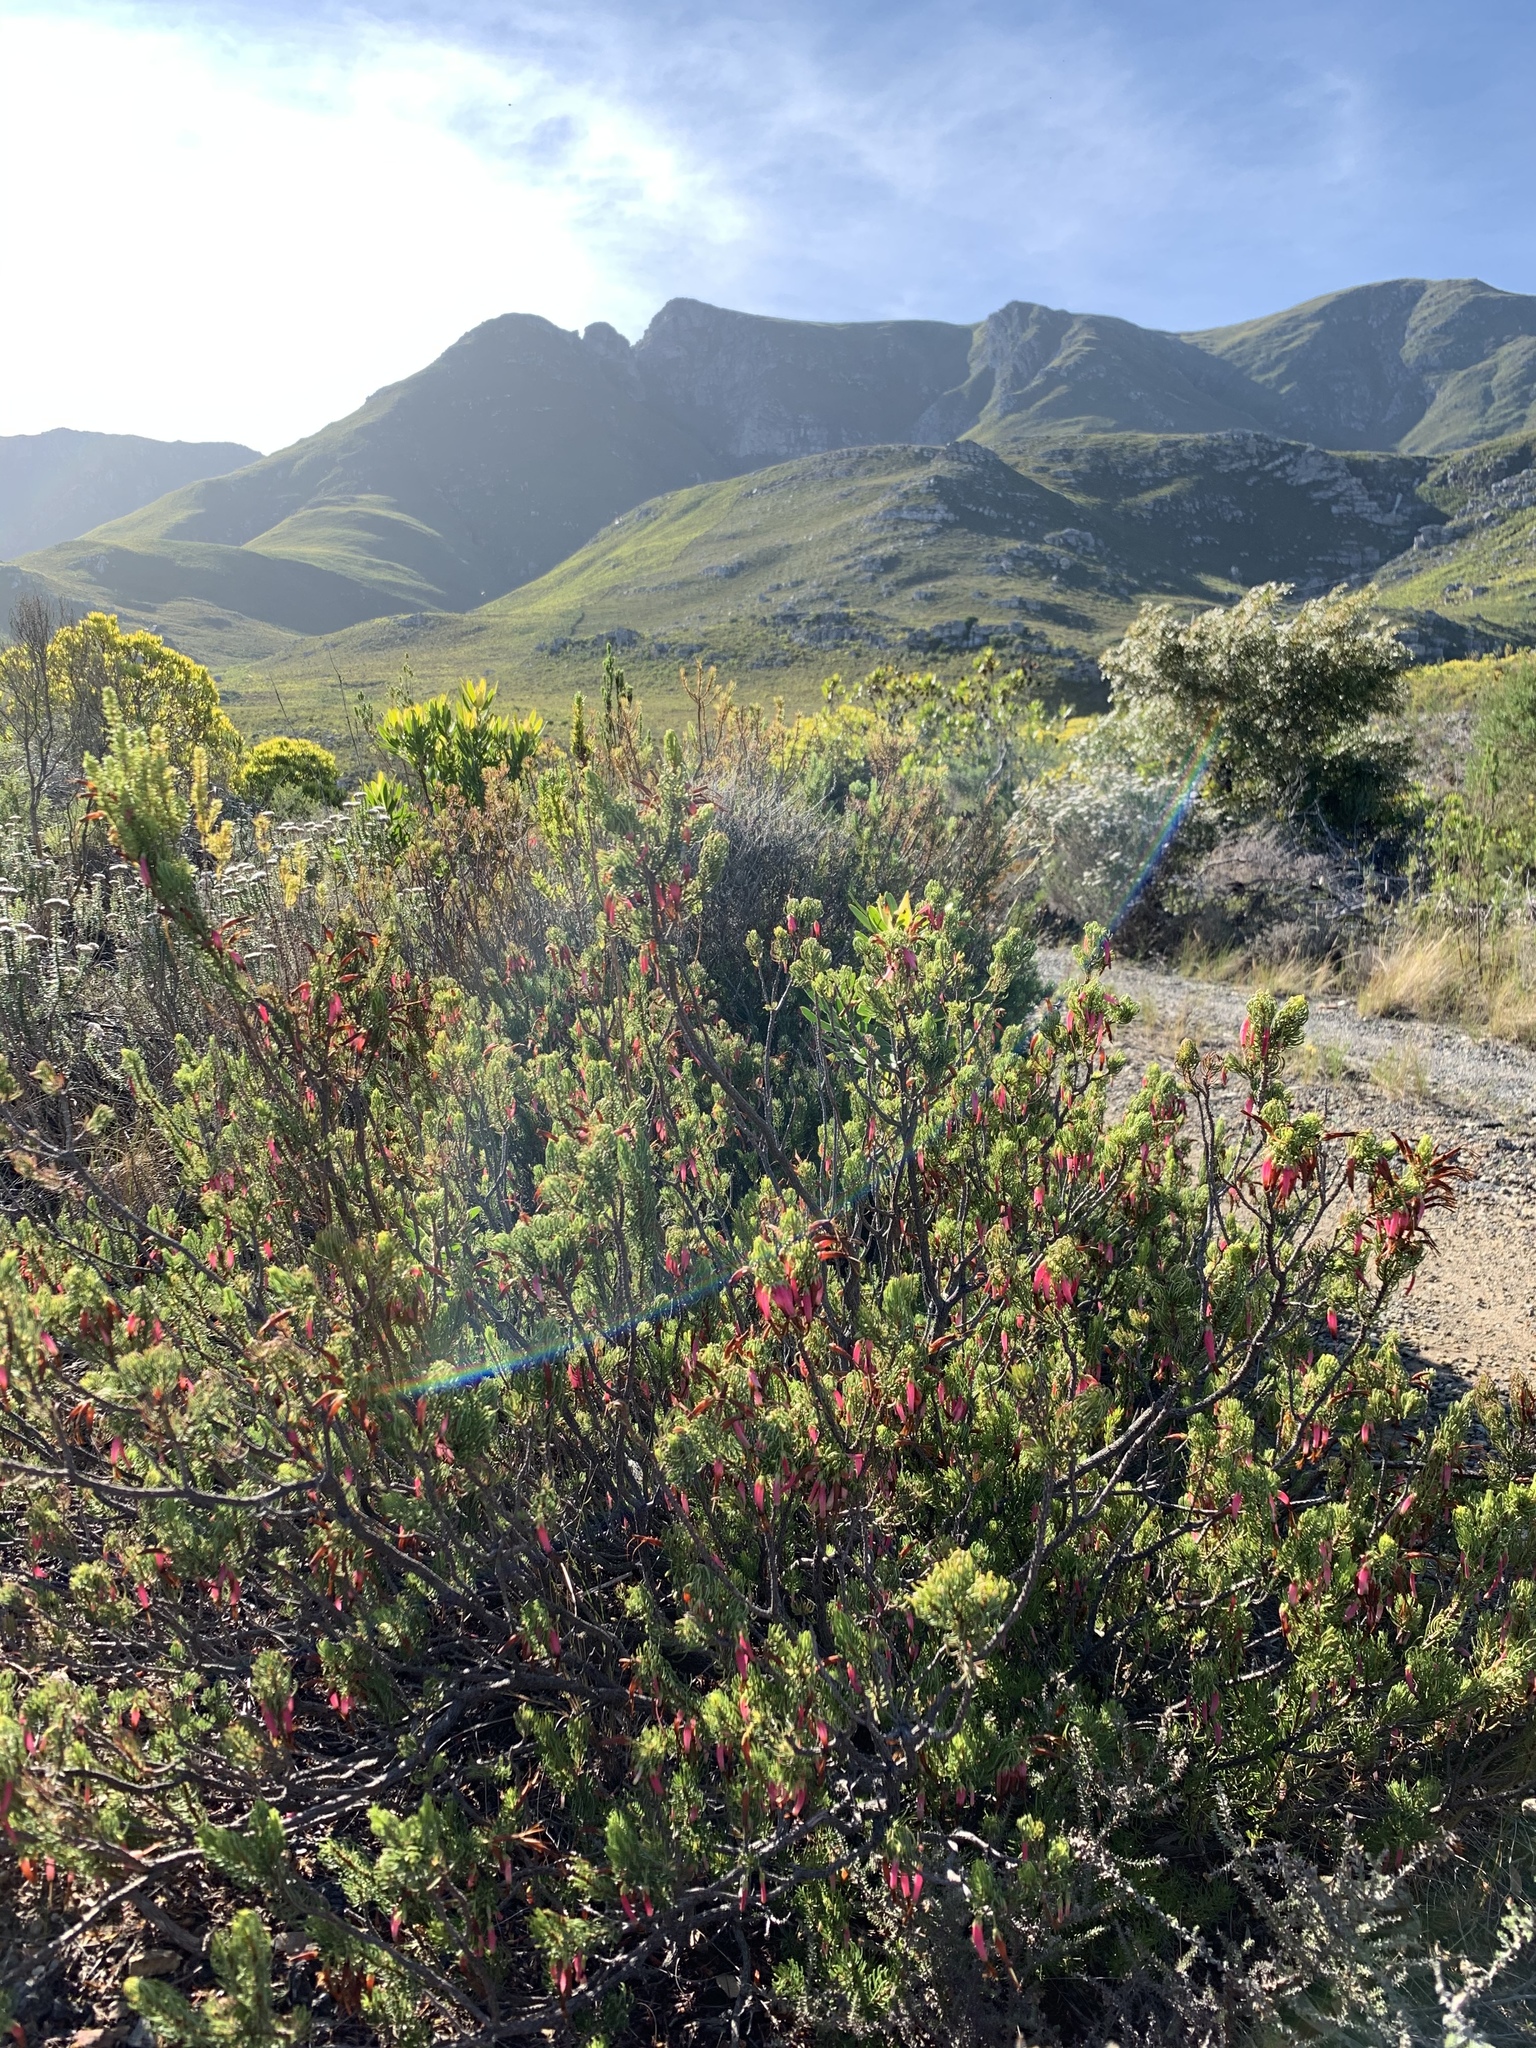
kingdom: Plantae
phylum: Tracheophyta
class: Magnoliopsida
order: Ericales
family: Ericaceae
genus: Erica
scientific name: Erica plukenetii
